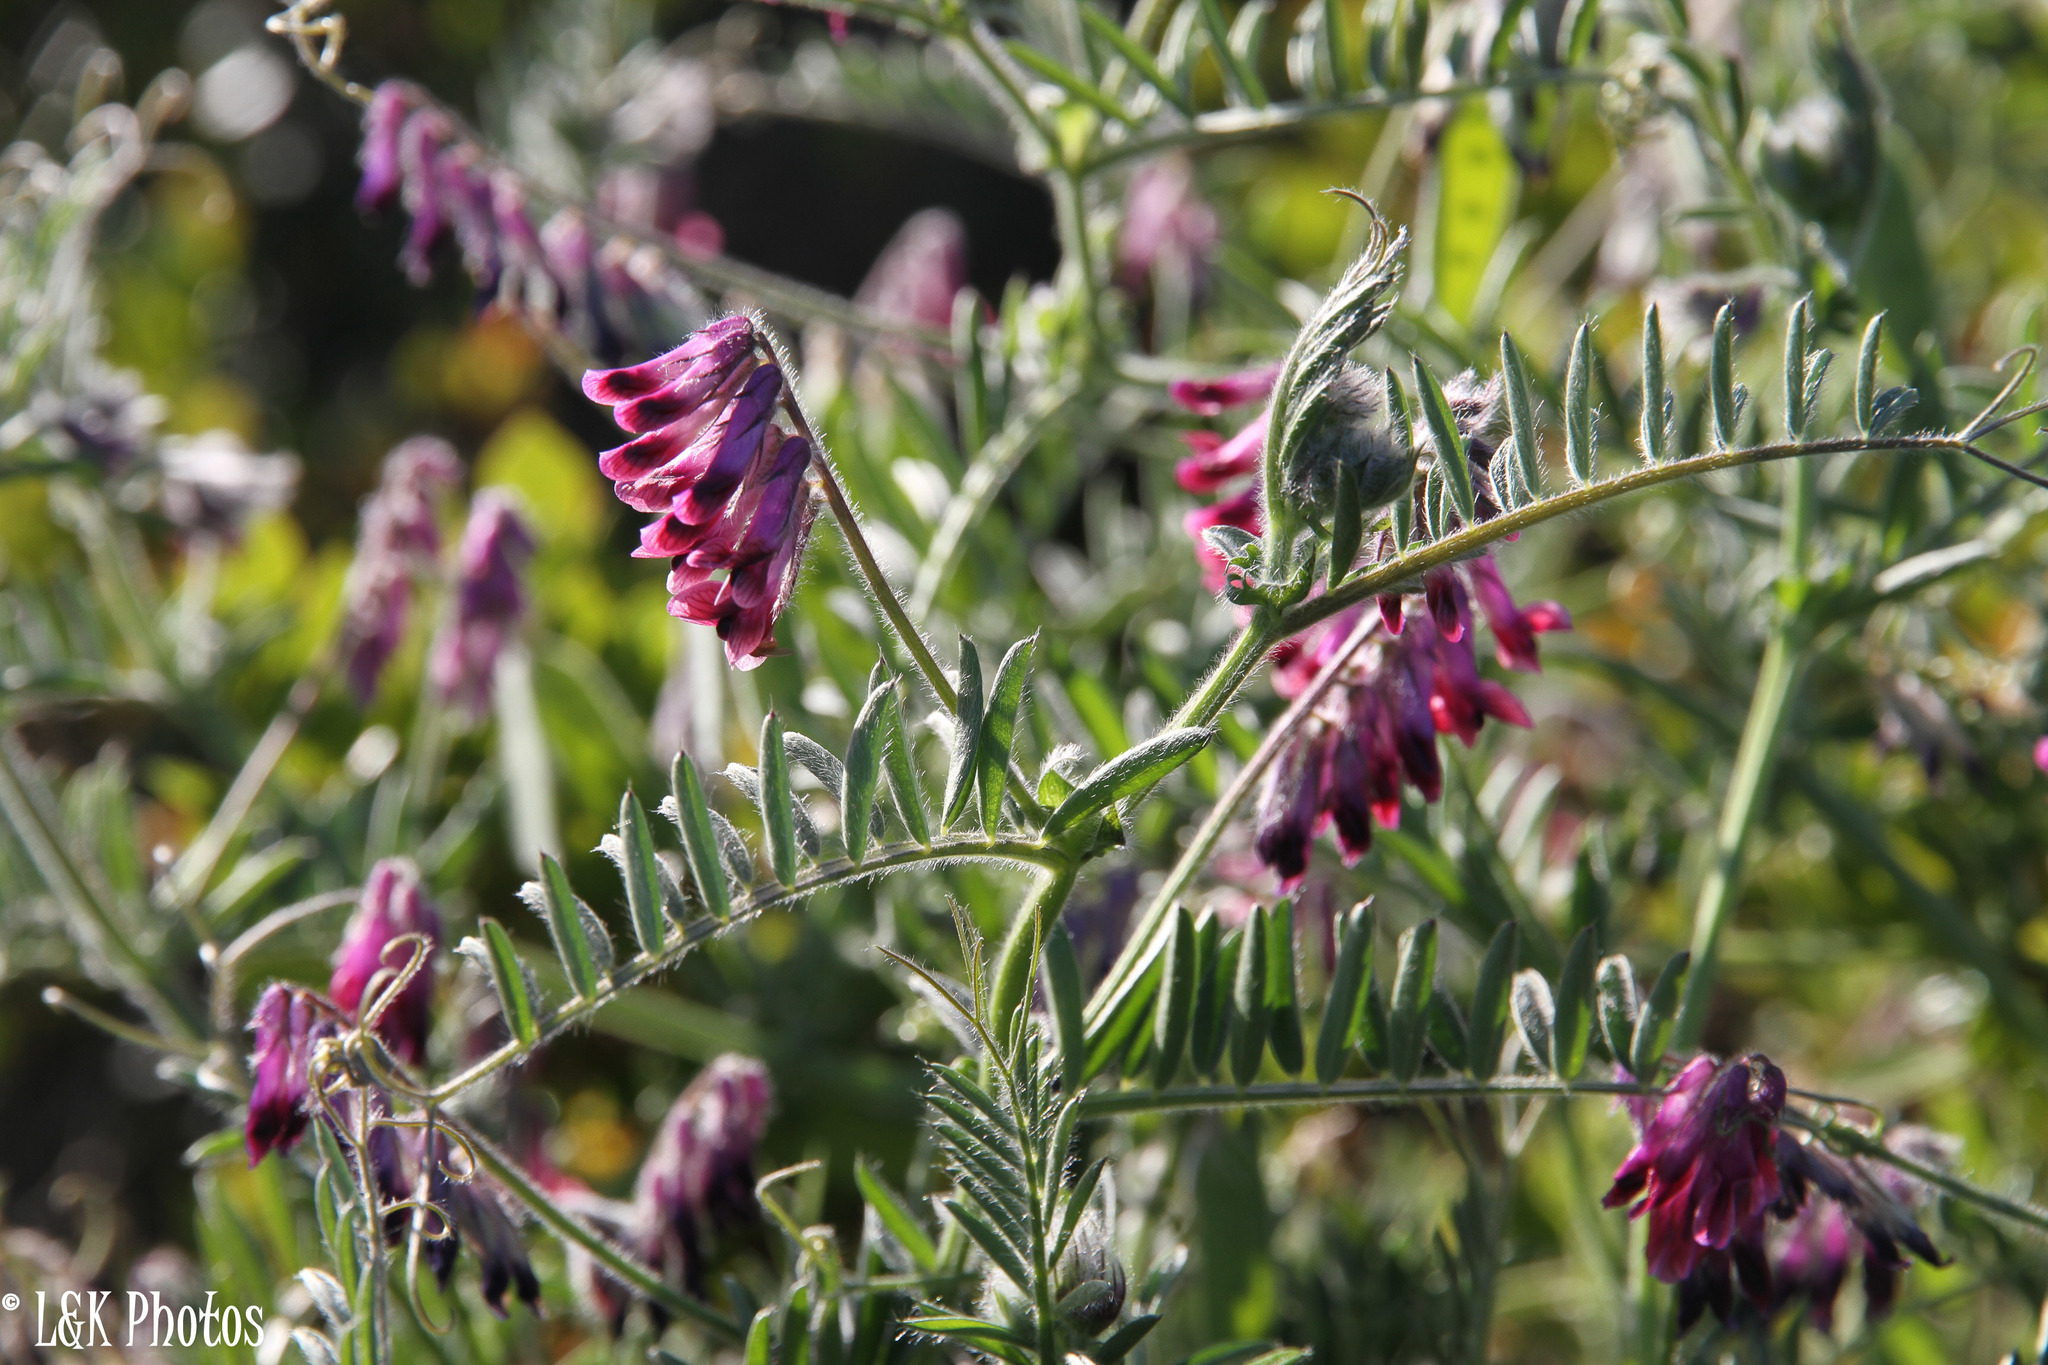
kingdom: Plantae
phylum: Tracheophyta
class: Magnoliopsida
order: Fabales
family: Fabaceae
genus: Vicia
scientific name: Vicia benghalensis
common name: Purple vetch
